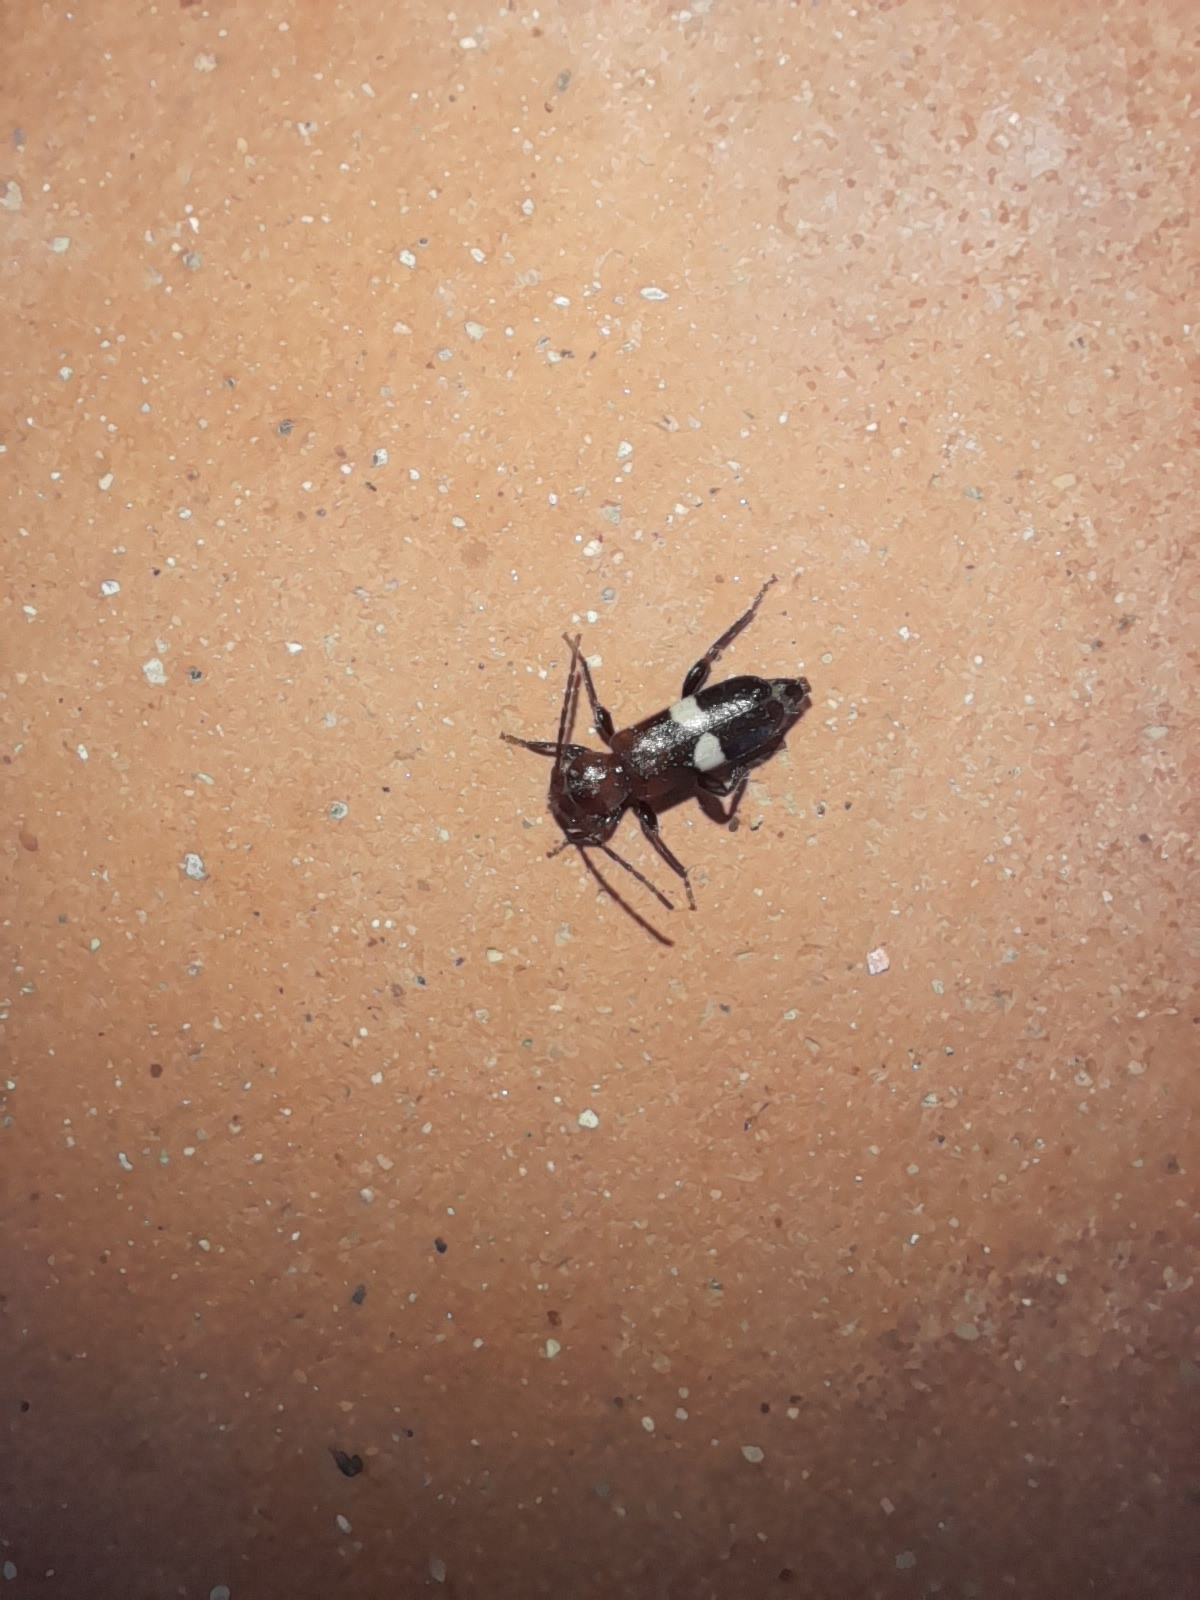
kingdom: Animalia
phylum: Arthropoda
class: Insecta
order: Coleoptera
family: Cerambycidae
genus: Poecilium
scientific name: Poecilium fasciatum
